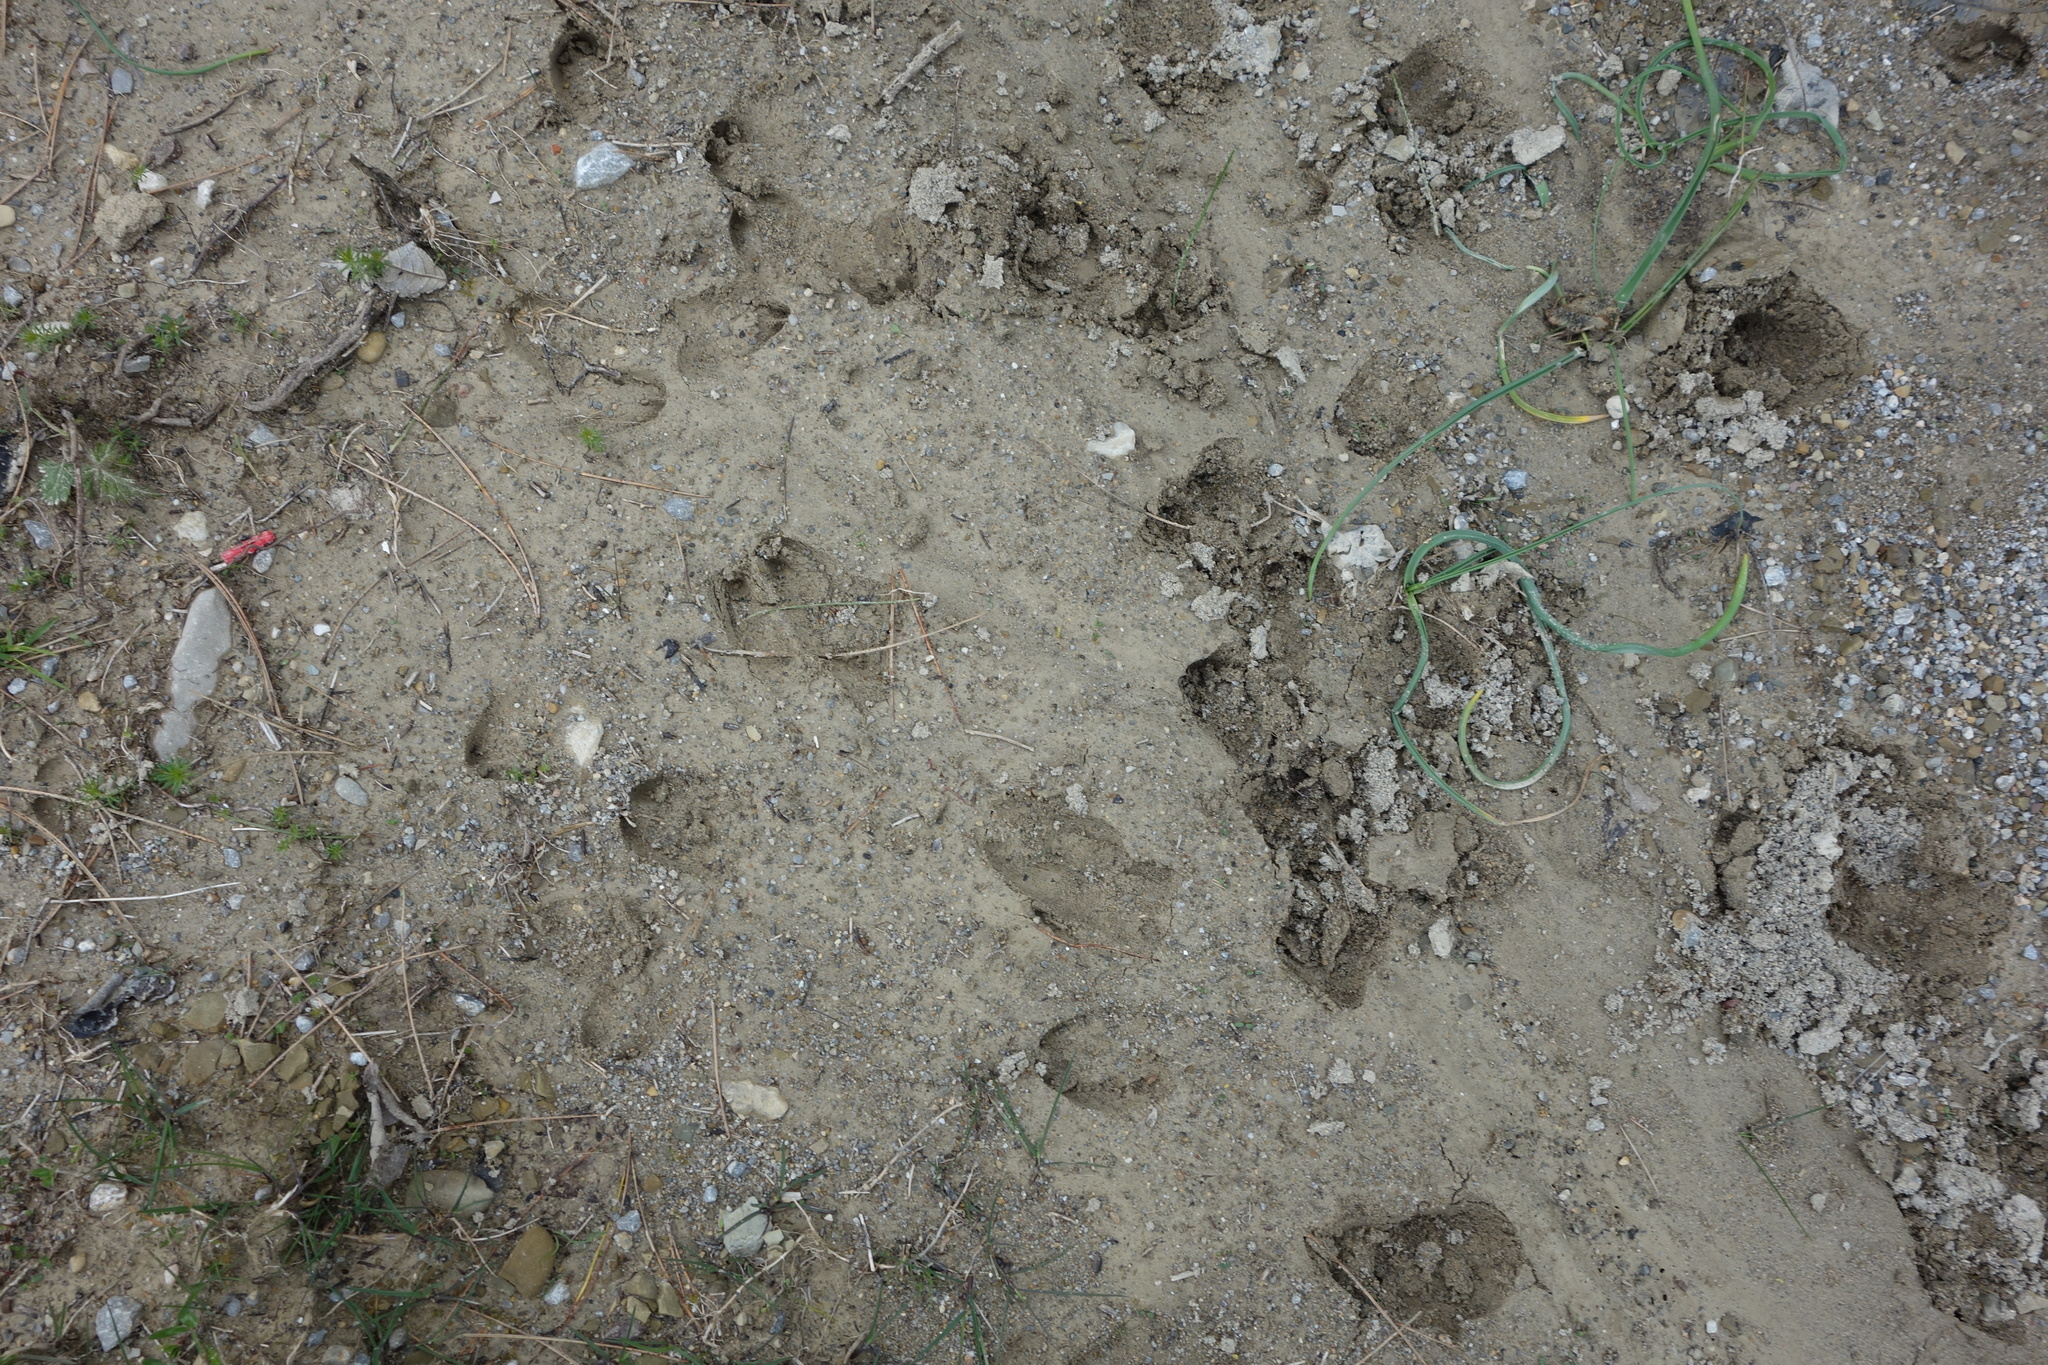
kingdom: Animalia
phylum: Chordata
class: Mammalia
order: Artiodactyla
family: Suidae
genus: Sus
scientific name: Sus scrofa
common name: Wild boar
